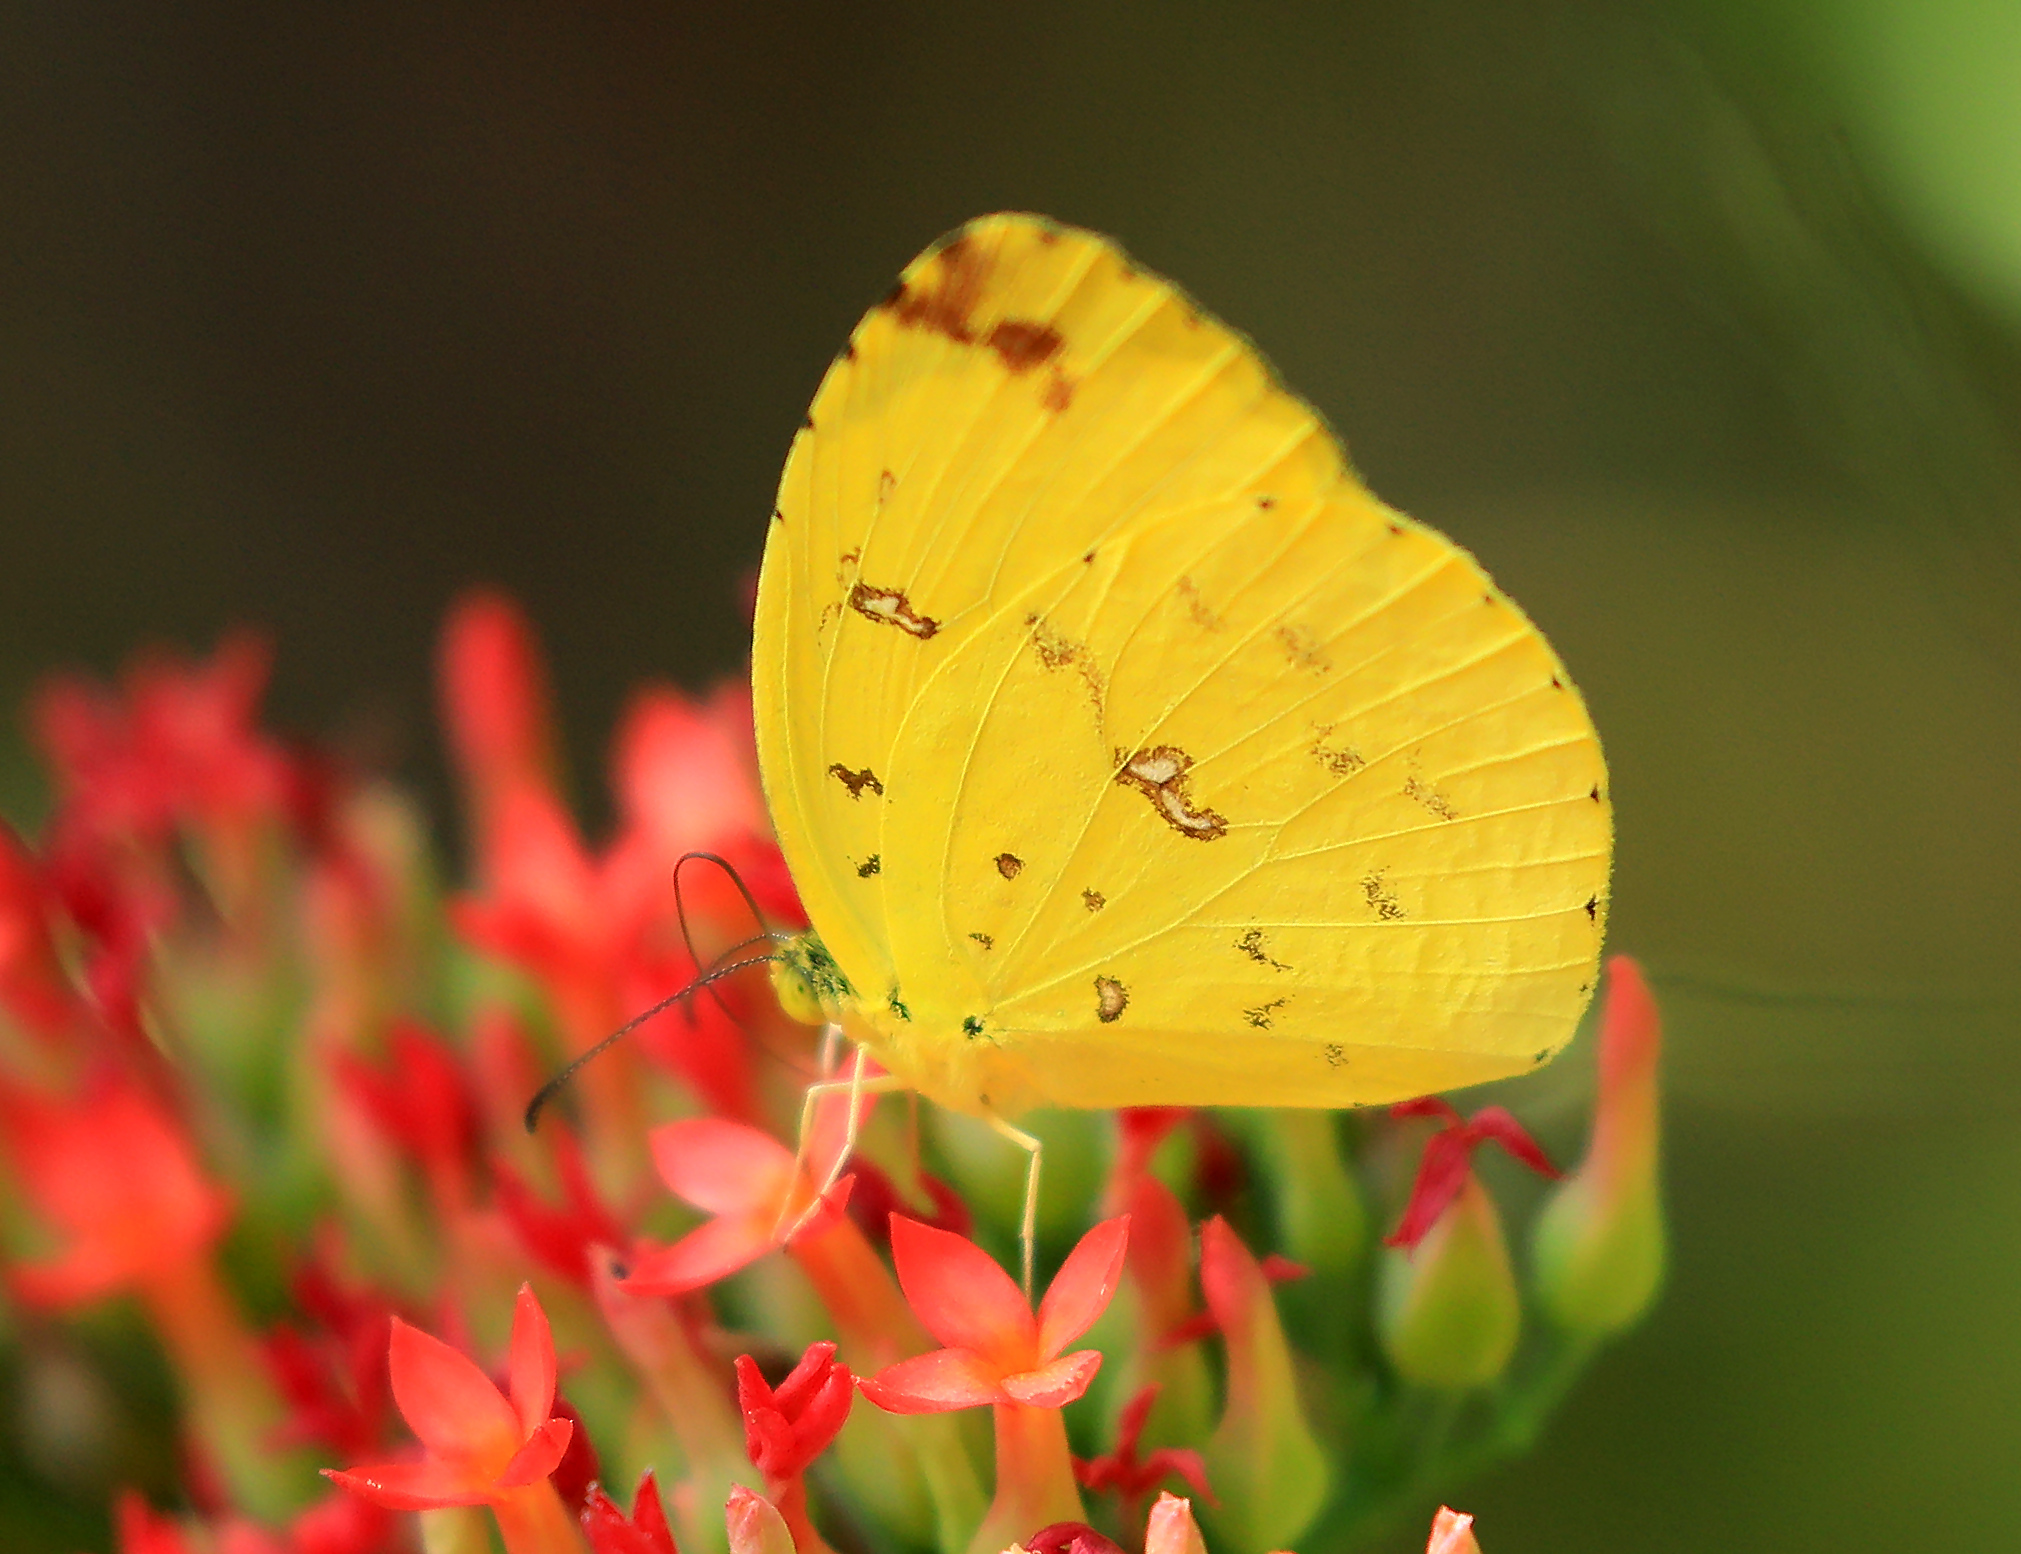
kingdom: Animalia
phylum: Arthropoda
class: Insecta
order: Lepidoptera
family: Pieridae
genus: Eurema
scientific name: Eurema floricola
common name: Malagasy grass yellow
